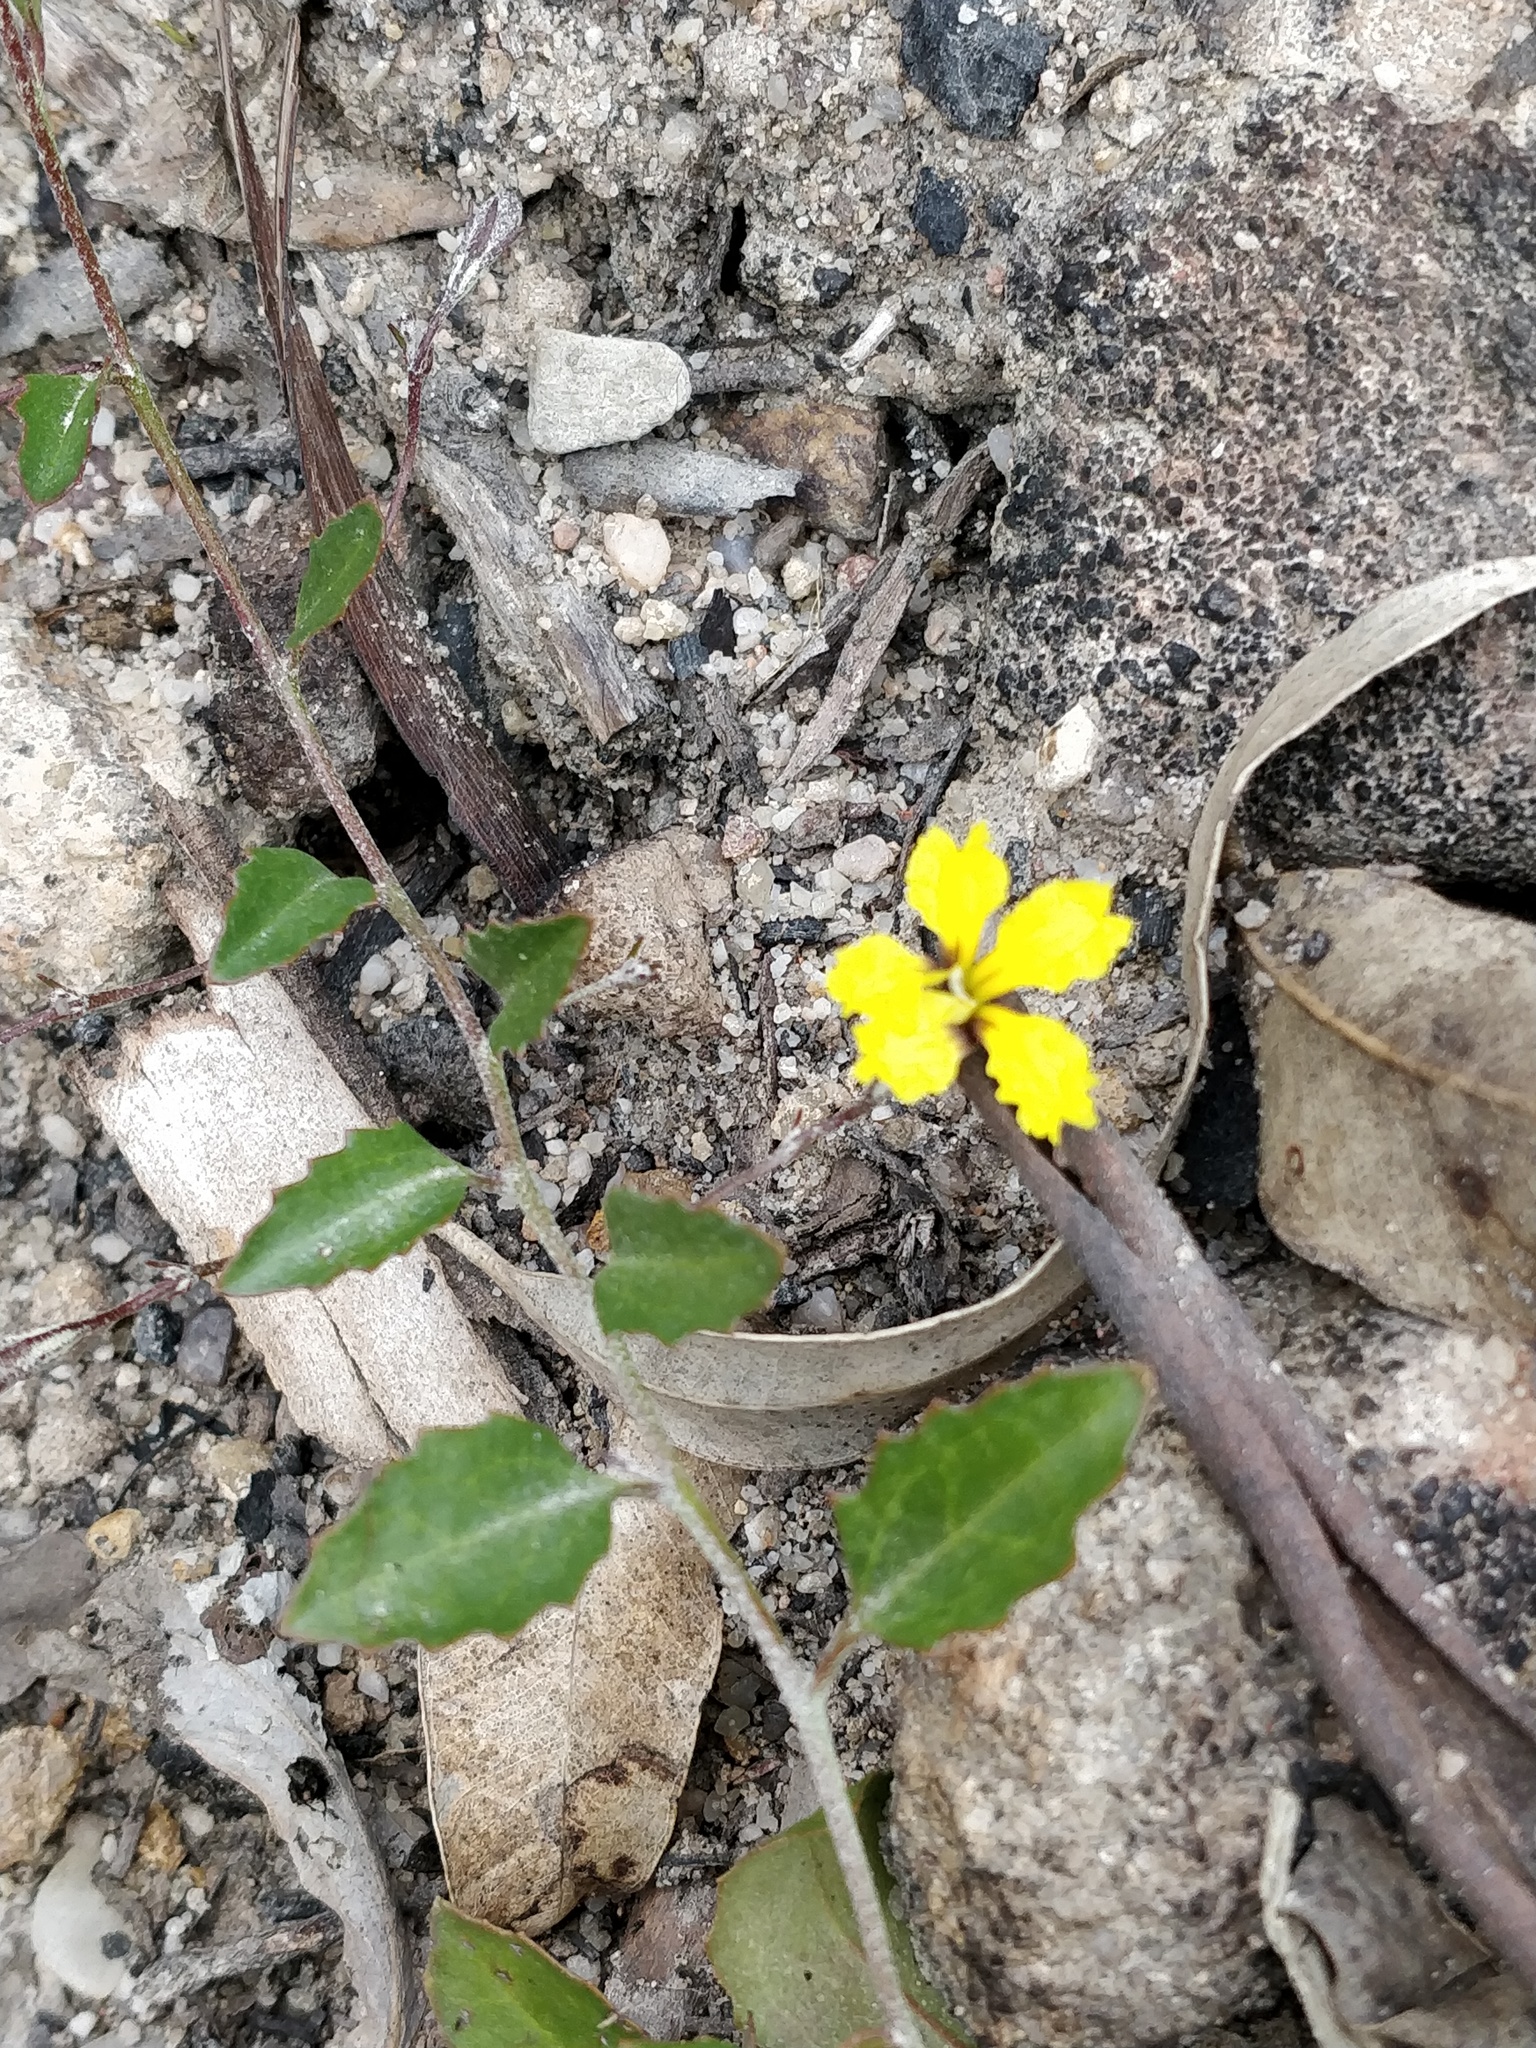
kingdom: Plantae
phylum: Tracheophyta
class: Magnoliopsida
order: Asterales
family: Goodeniaceae
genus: Goodenia
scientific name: Goodenia hederacea
